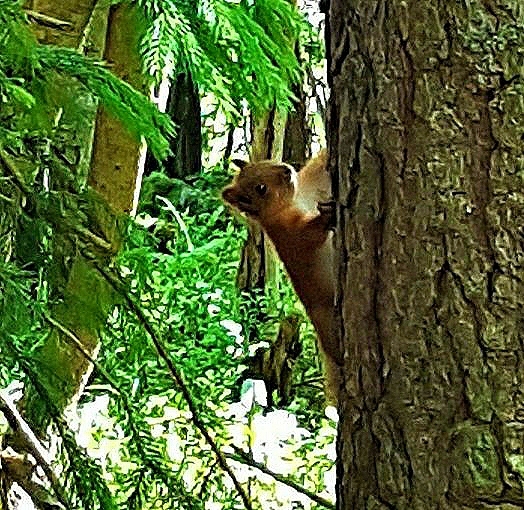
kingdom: Animalia
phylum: Chordata
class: Mammalia
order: Rodentia
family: Sciuridae
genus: Sciurus
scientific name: Sciurus vulgaris
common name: Eurasian red squirrel
